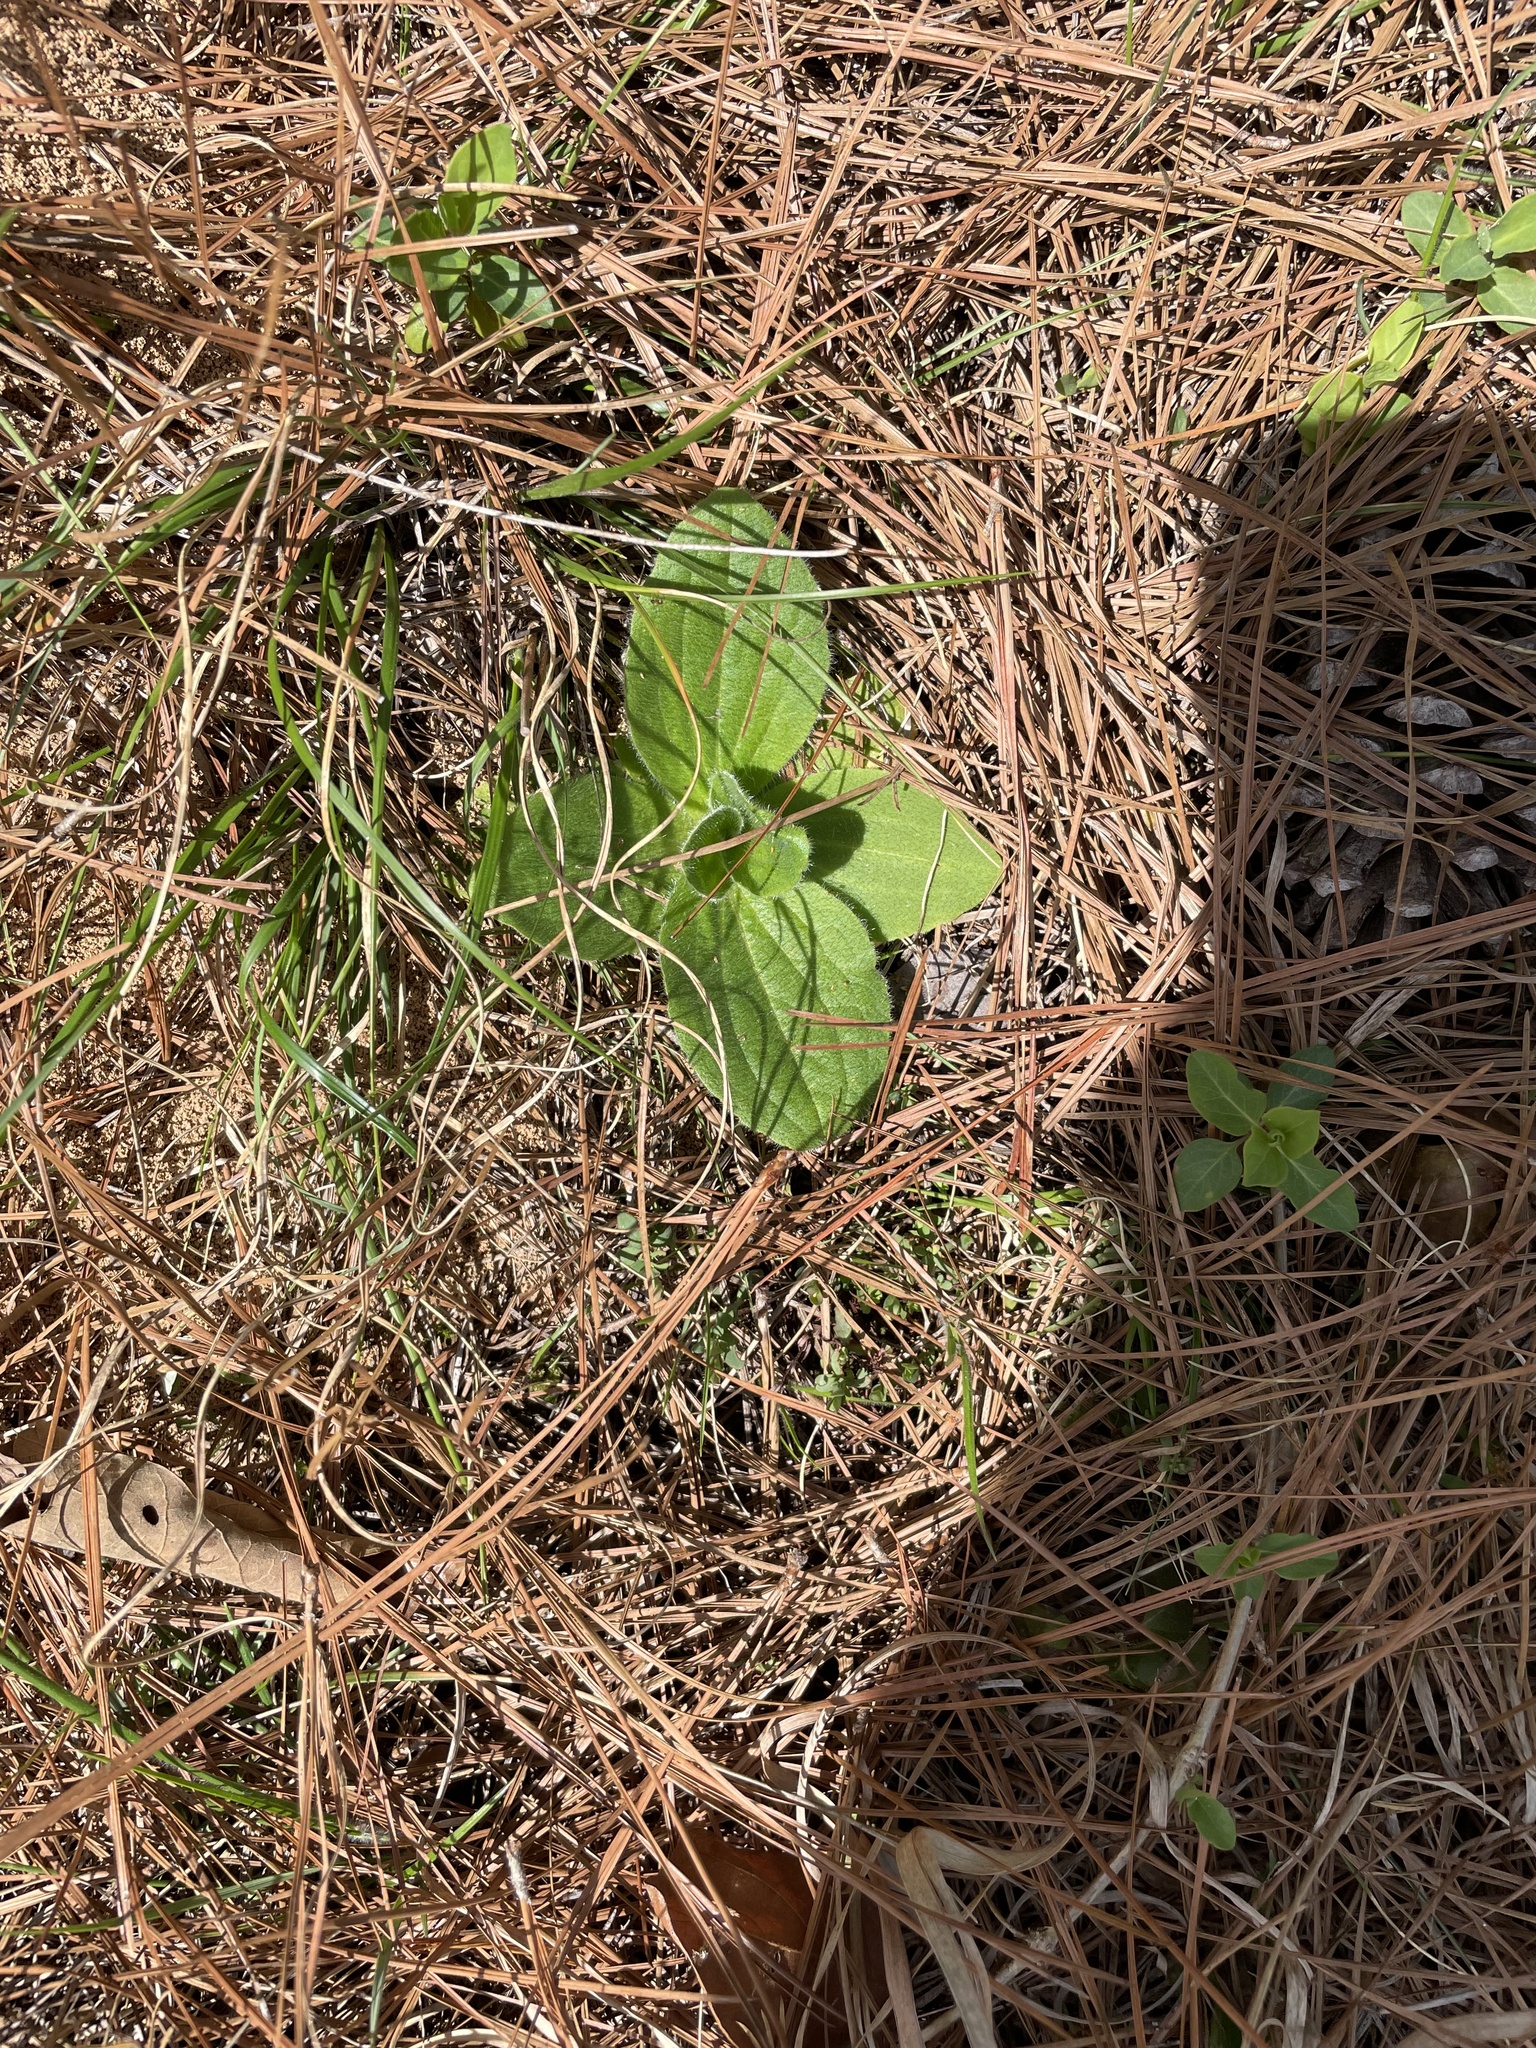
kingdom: Plantae
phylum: Tracheophyta
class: Magnoliopsida
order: Asterales
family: Asteraceae
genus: Arnica
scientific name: Arnica acaulis
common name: Common leopardbane
